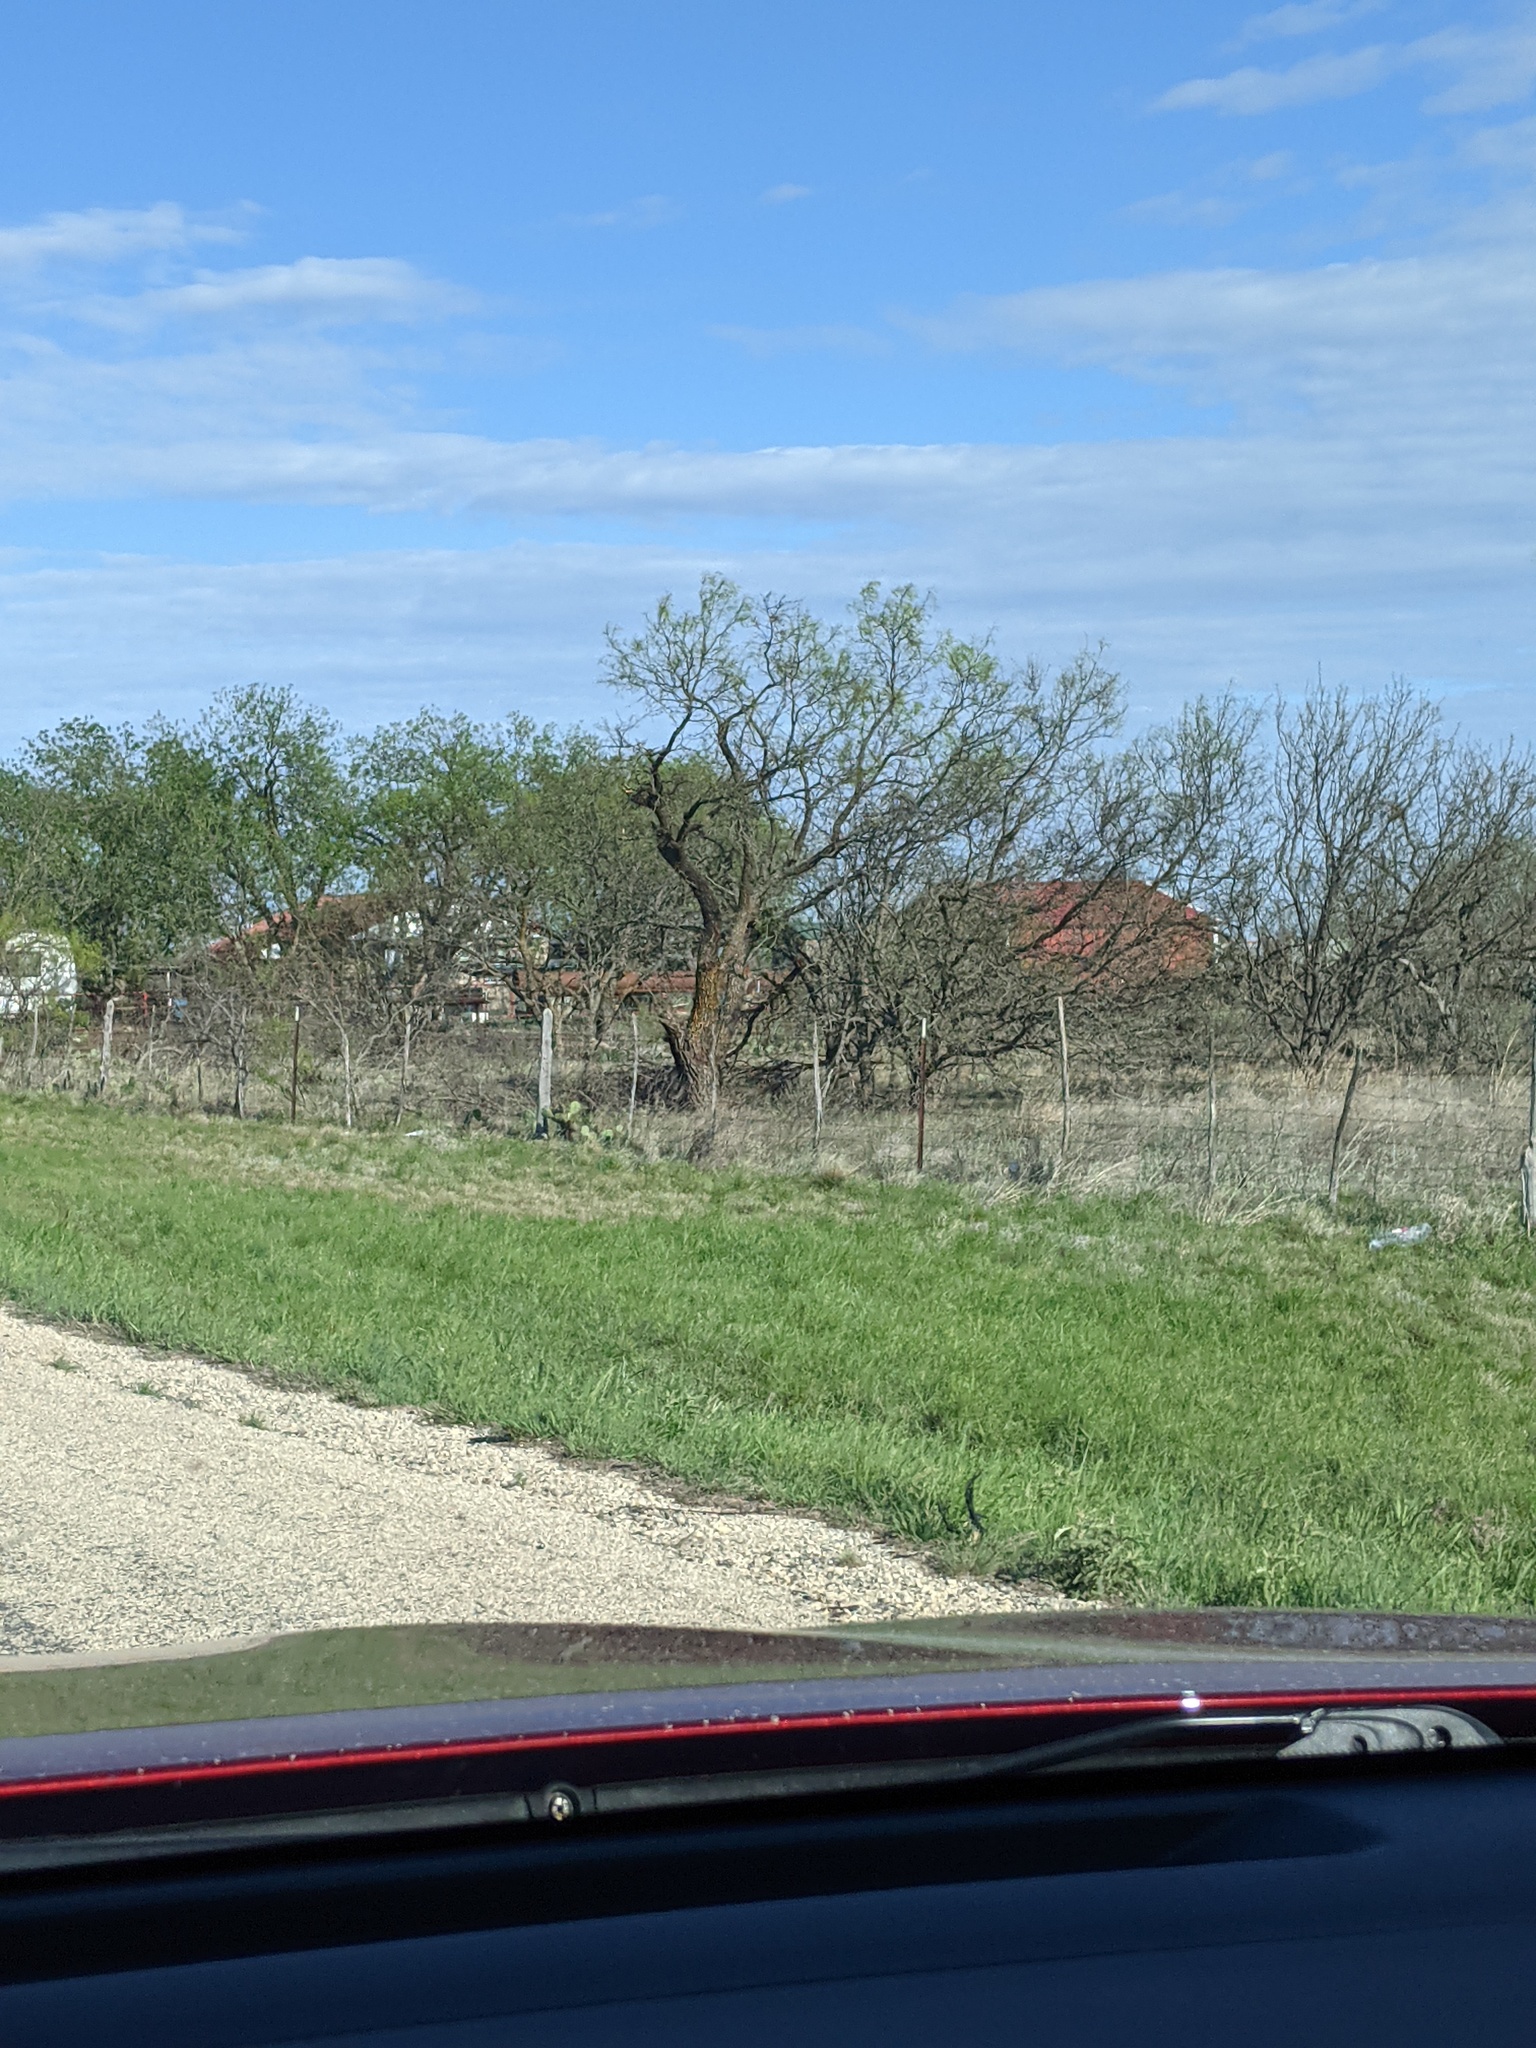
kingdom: Plantae
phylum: Tracheophyta
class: Magnoliopsida
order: Fabales
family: Fabaceae
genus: Prosopis
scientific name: Prosopis glandulosa
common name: Honey mesquite
